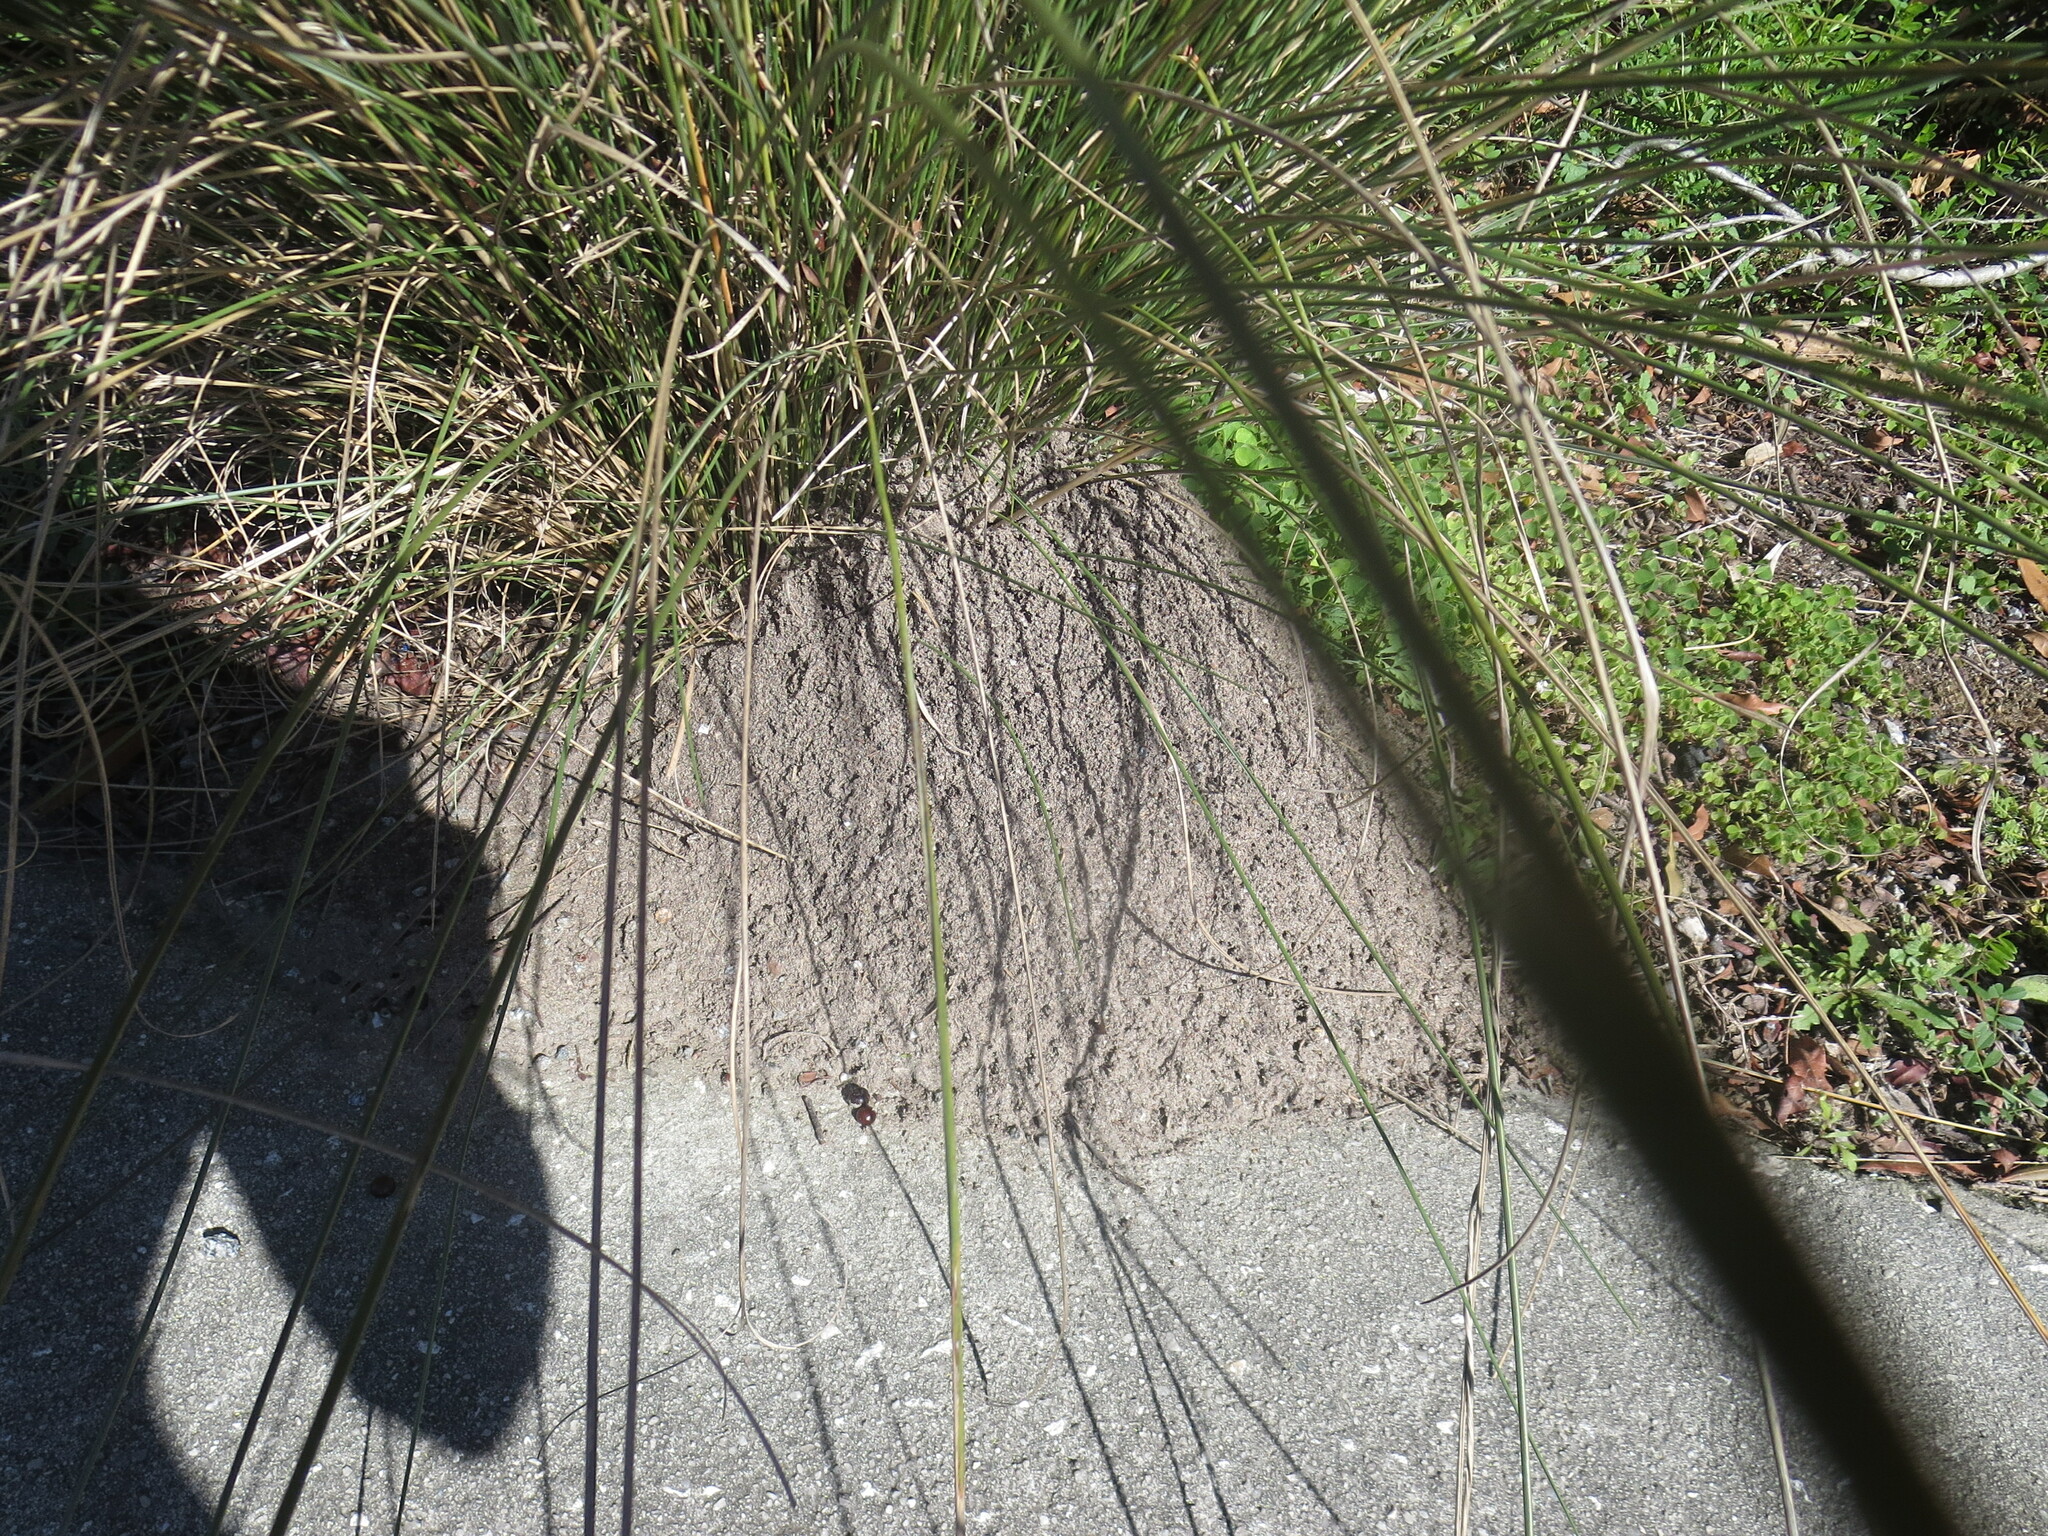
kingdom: Animalia
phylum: Arthropoda
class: Insecta
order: Hymenoptera
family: Formicidae
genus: Solenopsis
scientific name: Solenopsis invicta
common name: Red imported fire ant
